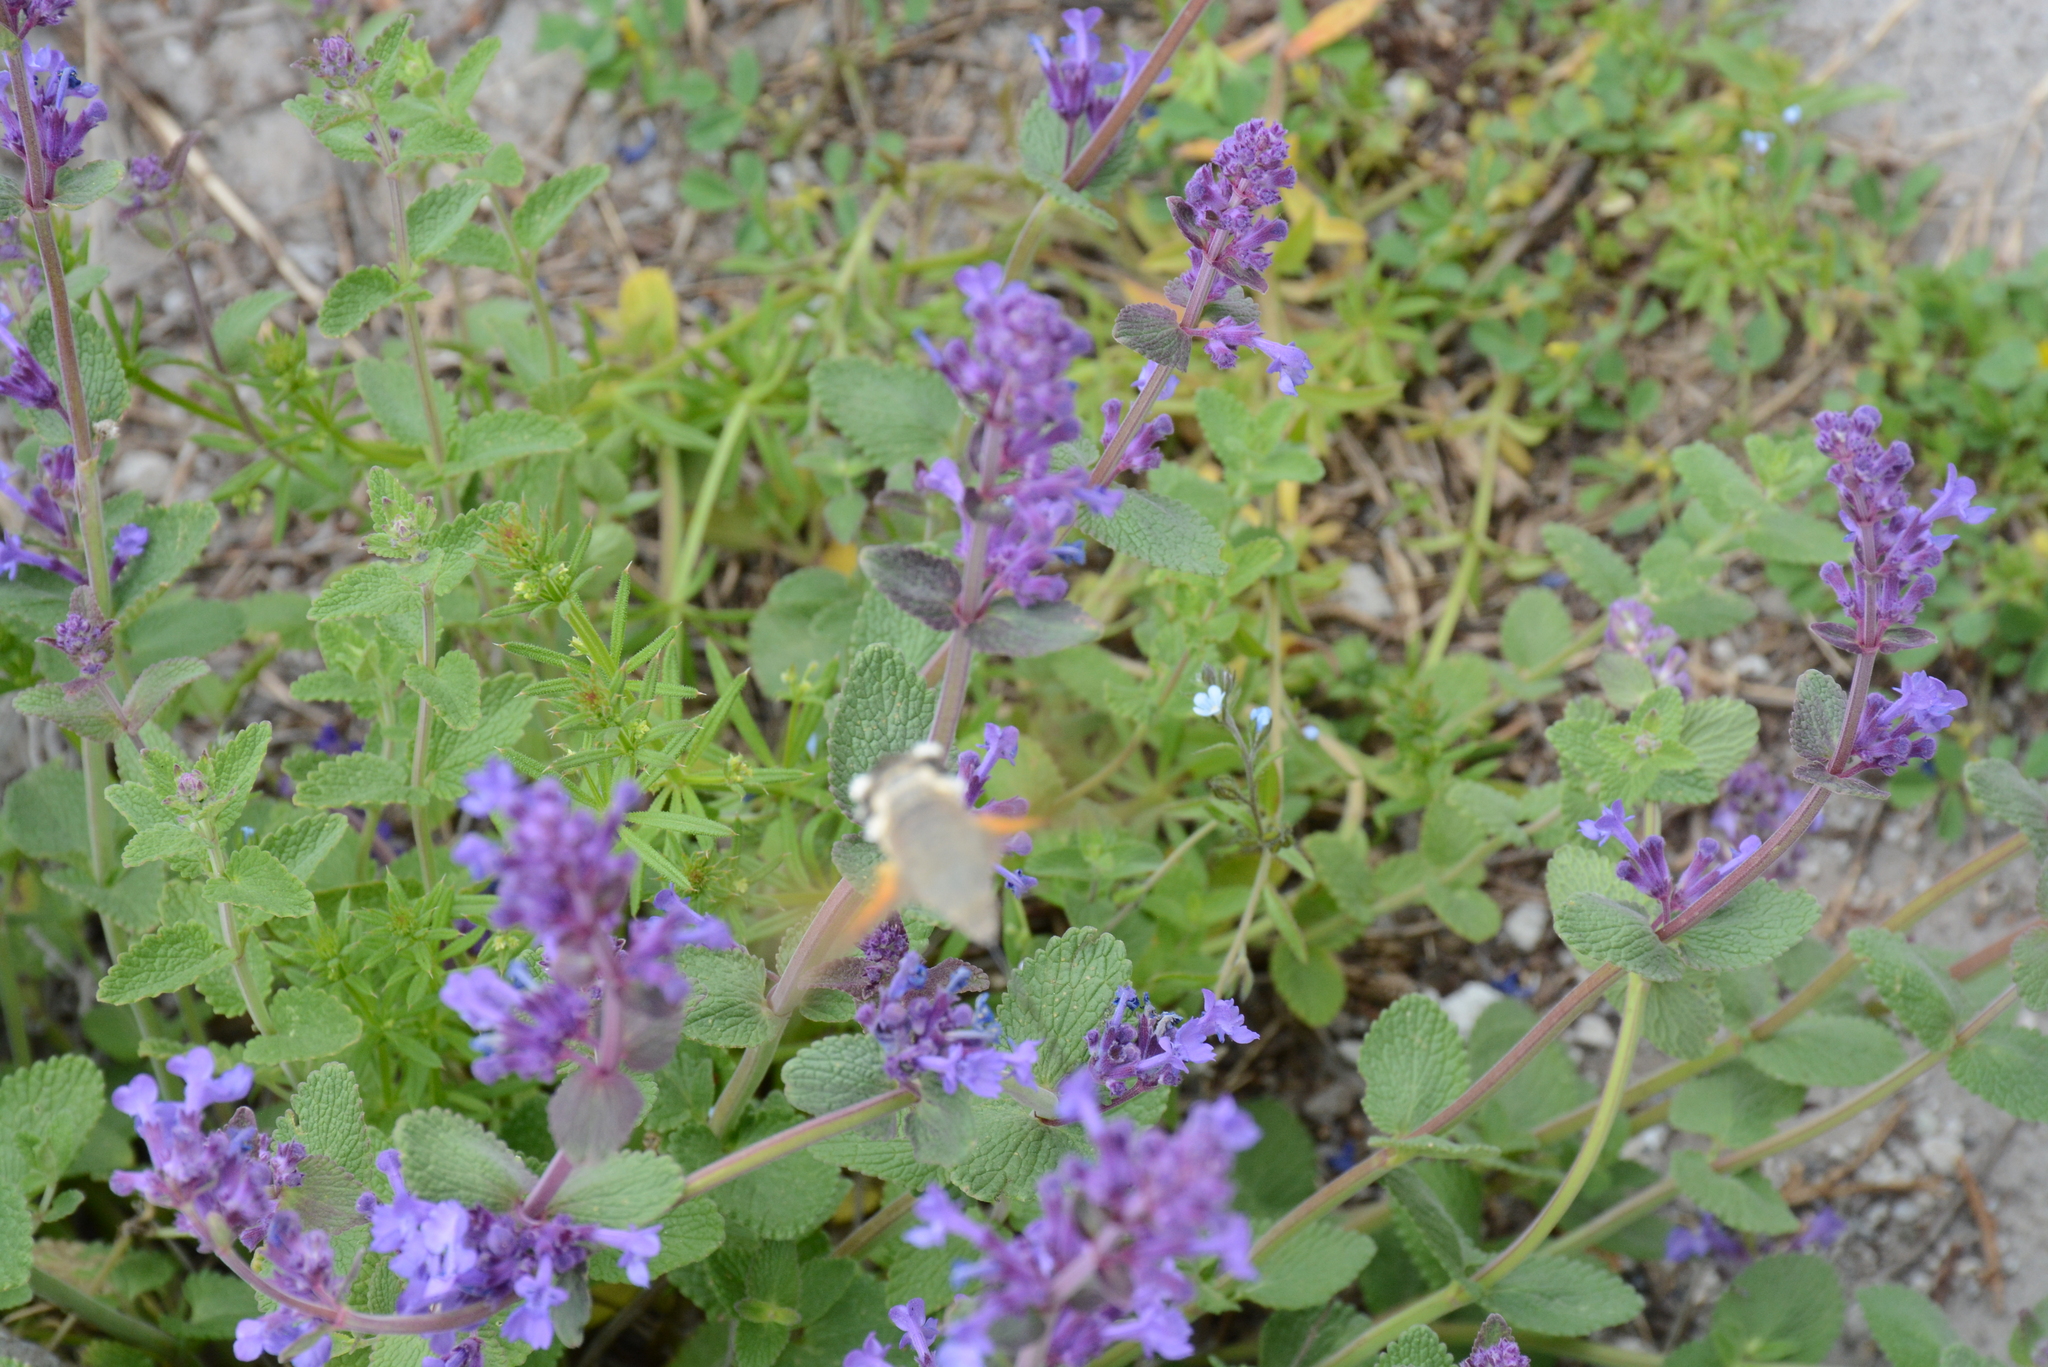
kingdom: Animalia
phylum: Arthropoda
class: Insecta
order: Lepidoptera
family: Sphingidae
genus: Macroglossum
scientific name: Macroglossum stellatarum
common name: Humming-bird hawk-moth
